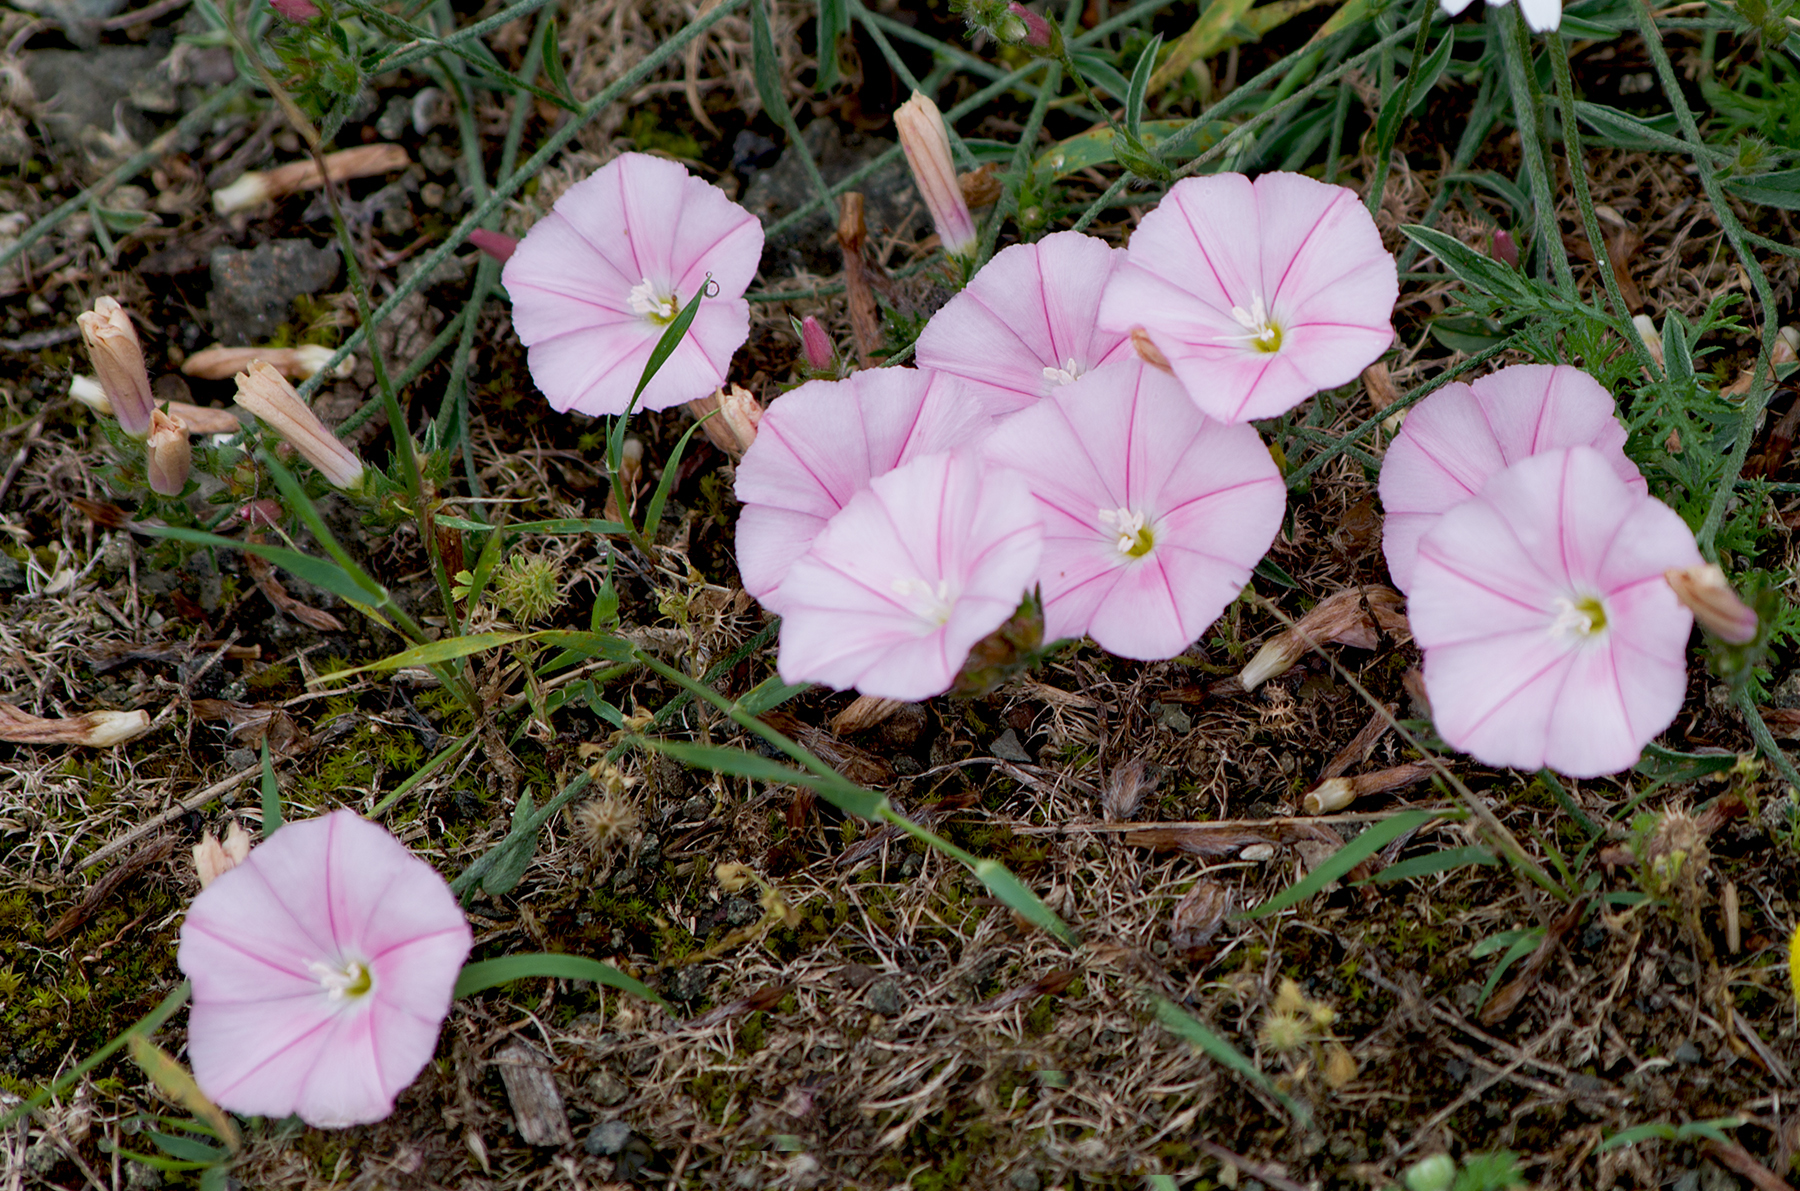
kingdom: Plantae
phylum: Tracheophyta
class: Magnoliopsida
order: Solanales
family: Convolvulaceae
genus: Convolvulus
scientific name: Convolvulus cantabrica
